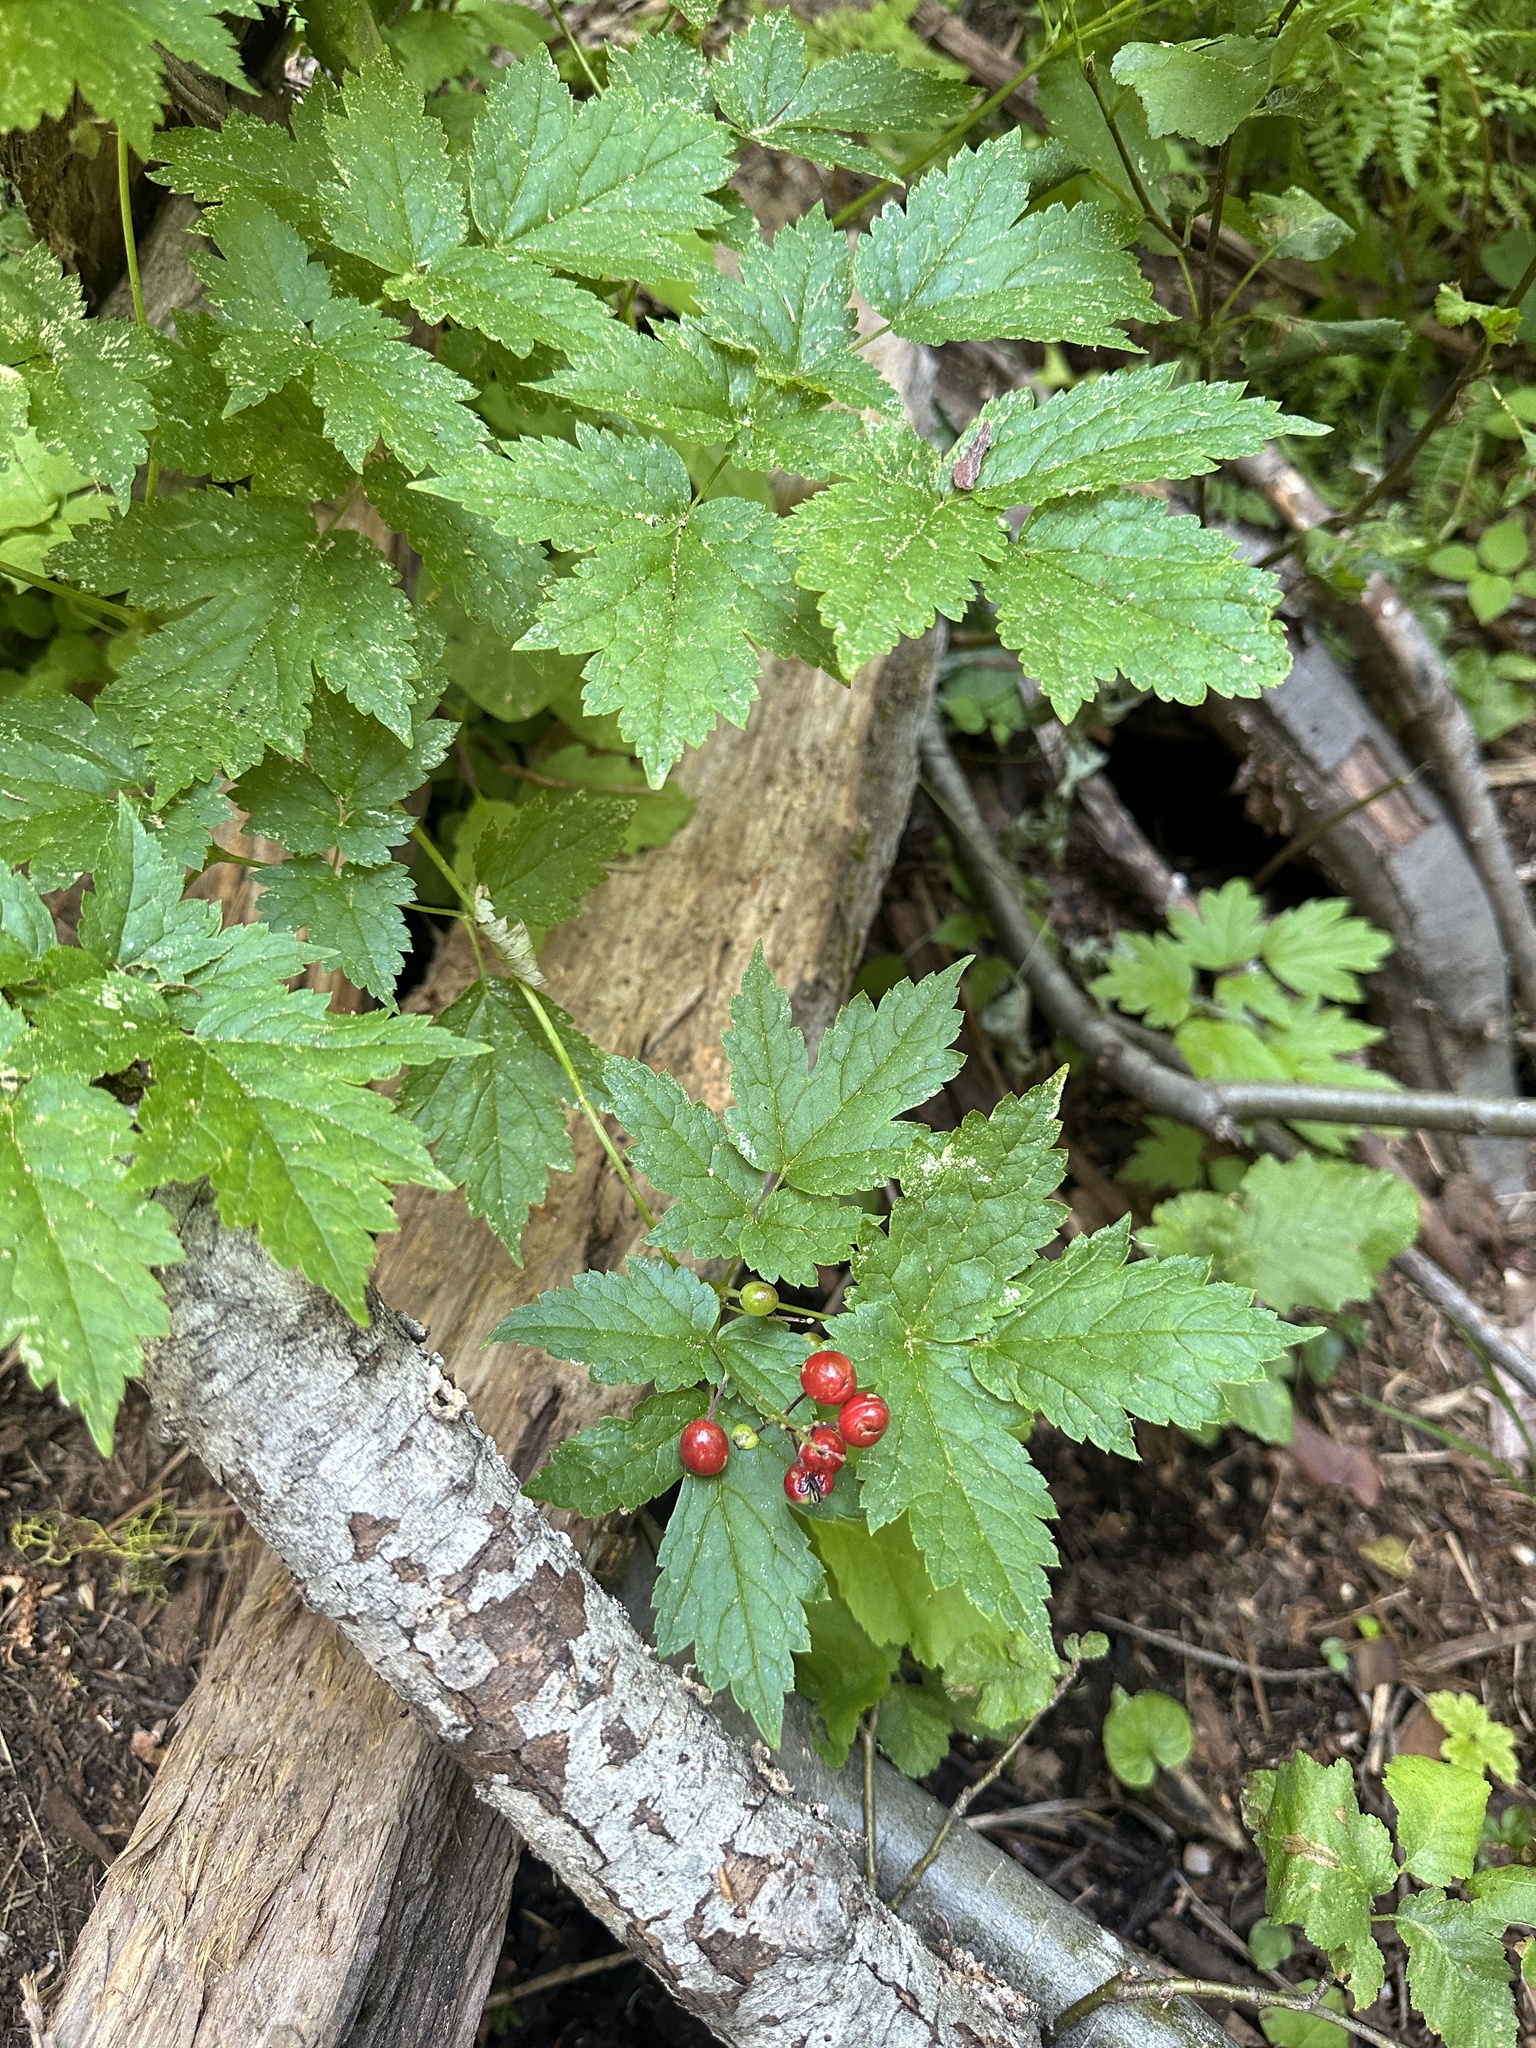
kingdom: Plantae
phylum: Tracheophyta
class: Magnoliopsida
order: Ranunculales
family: Ranunculaceae
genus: Actaea
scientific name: Actaea rubra
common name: Red baneberry
